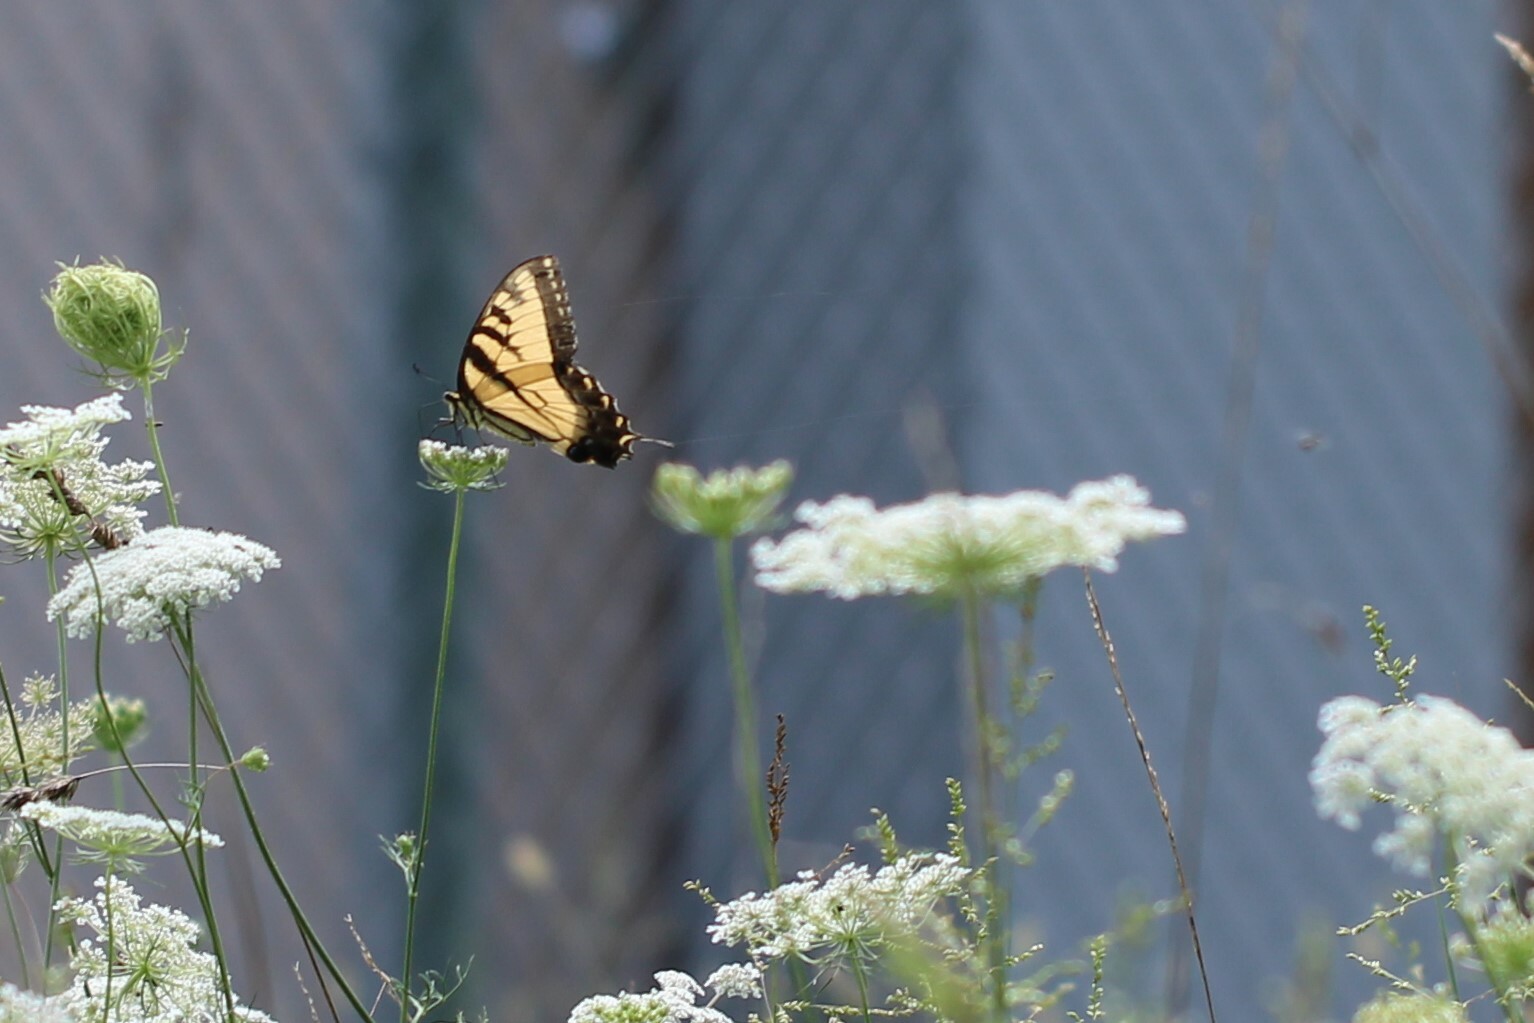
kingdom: Animalia
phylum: Arthropoda
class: Insecta
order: Lepidoptera
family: Papilionidae
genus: Papilio
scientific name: Papilio glaucus
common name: Tiger swallowtail
